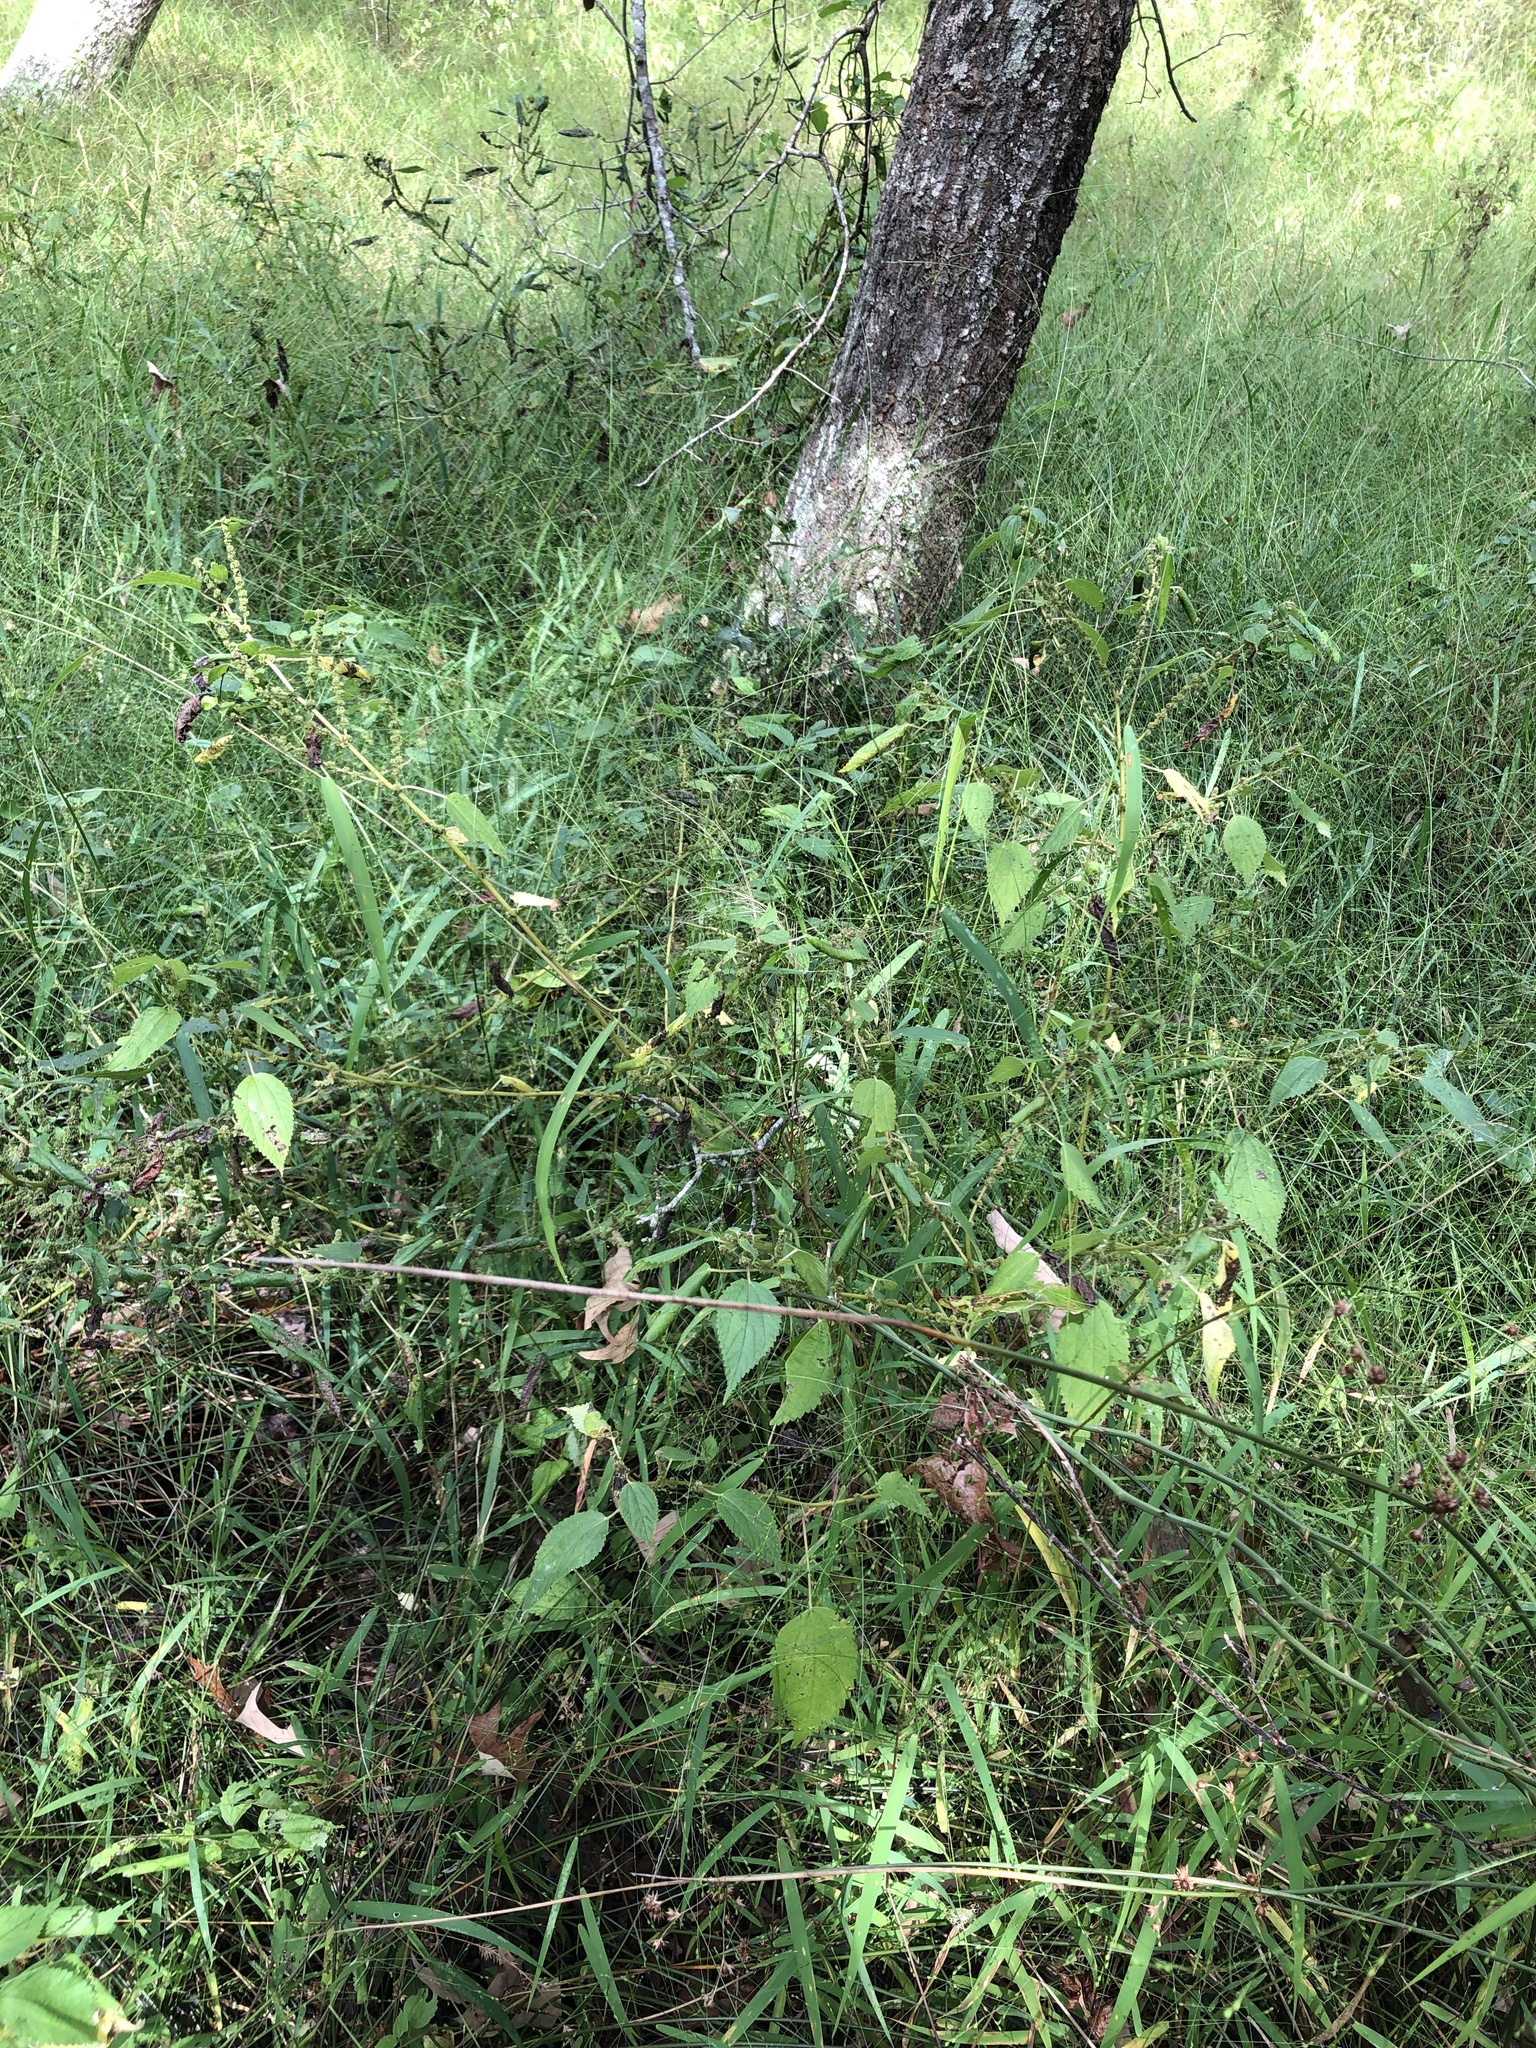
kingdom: Plantae
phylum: Tracheophyta
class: Magnoliopsida
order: Rosales
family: Urticaceae
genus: Boehmeria
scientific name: Boehmeria cylindrica
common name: Bog-hemp
